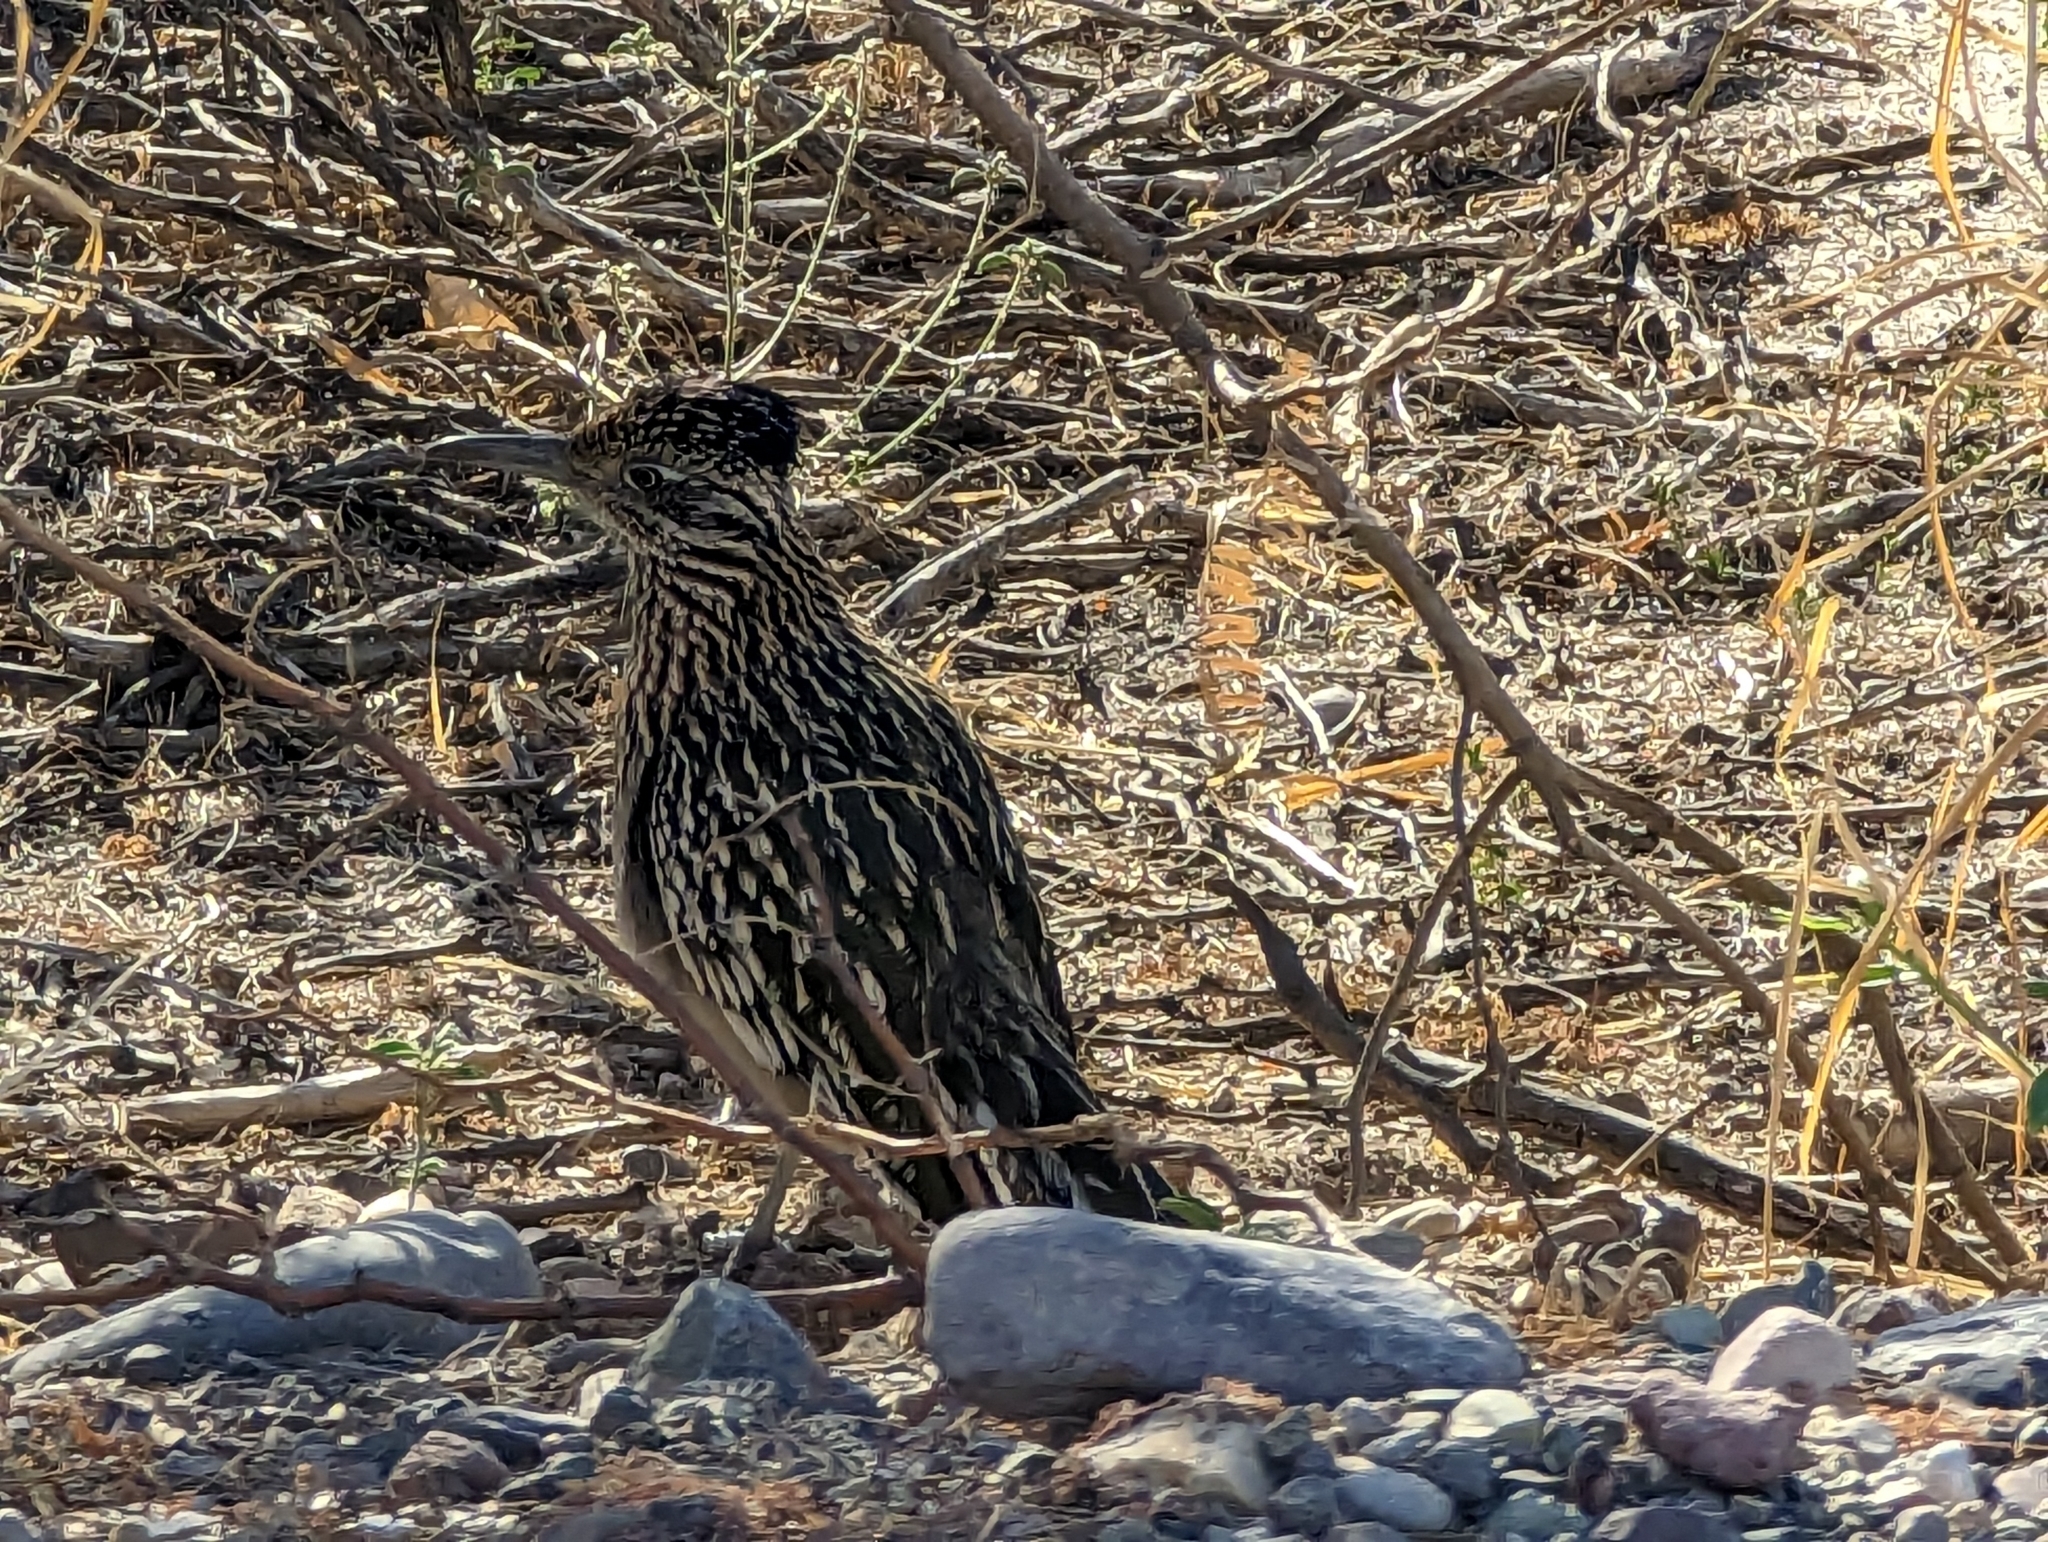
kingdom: Animalia
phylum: Chordata
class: Aves
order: Cuculiformes
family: Cuculidae
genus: Geococcyx
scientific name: Geococcyx californianus
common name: Greater roadrunner
